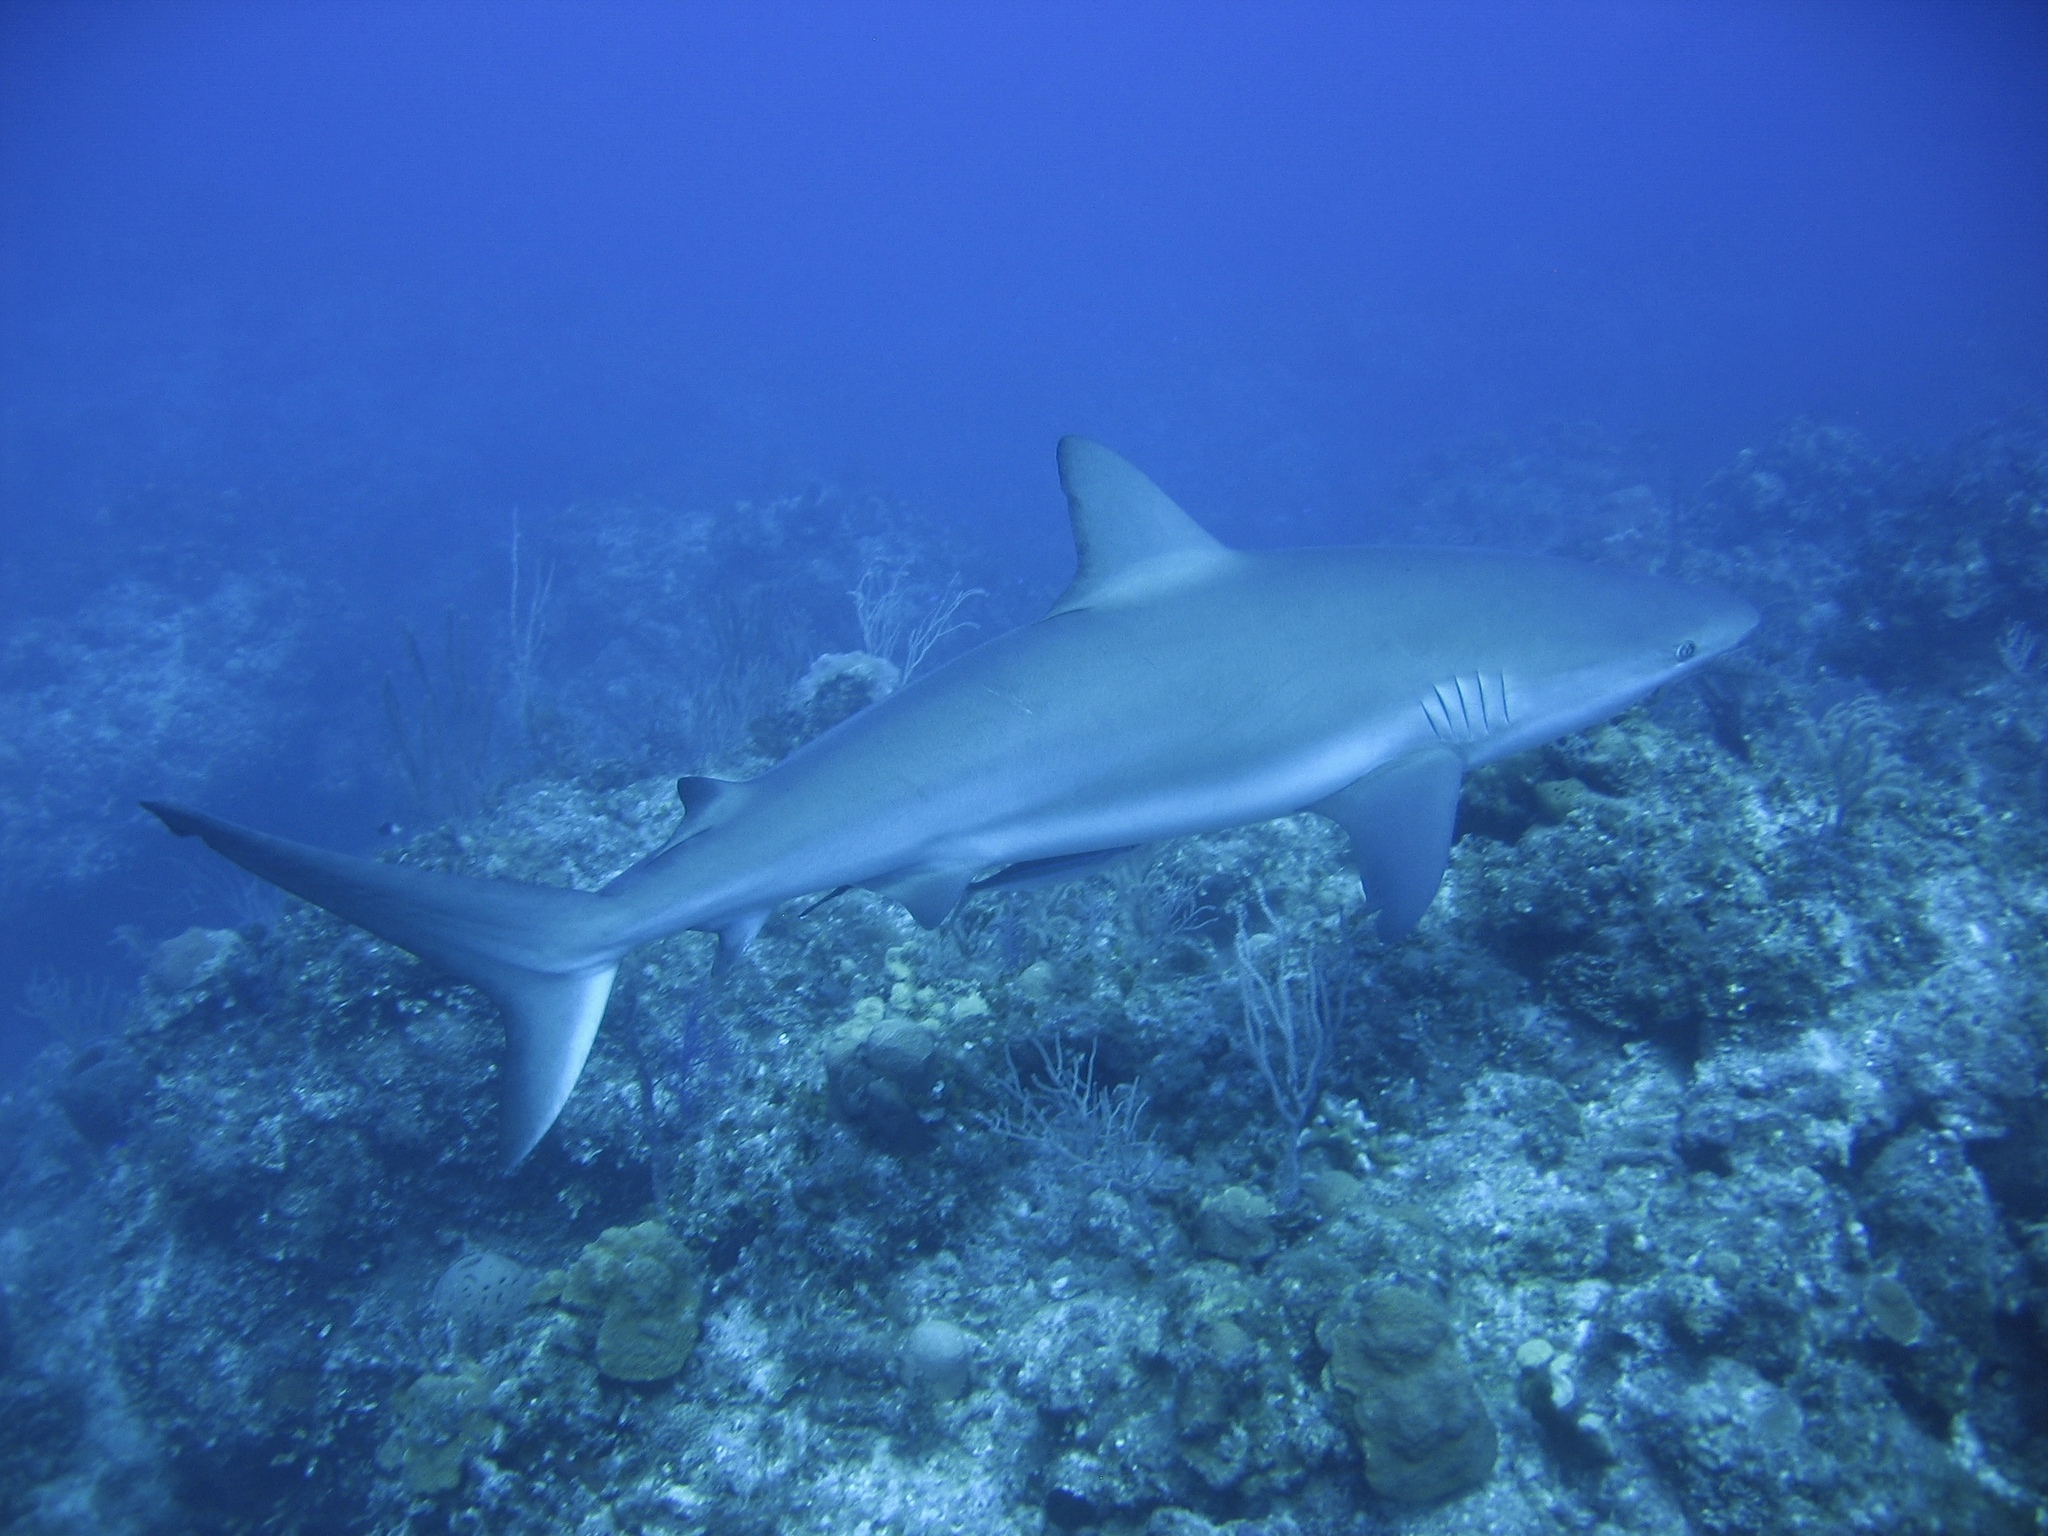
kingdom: Animalia
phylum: Chordata
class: Elasmobranchii
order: Carcharhiniformes
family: Carcharhinidae
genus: Carcharhinus
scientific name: Carcharhinus perezii
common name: Reef shark
